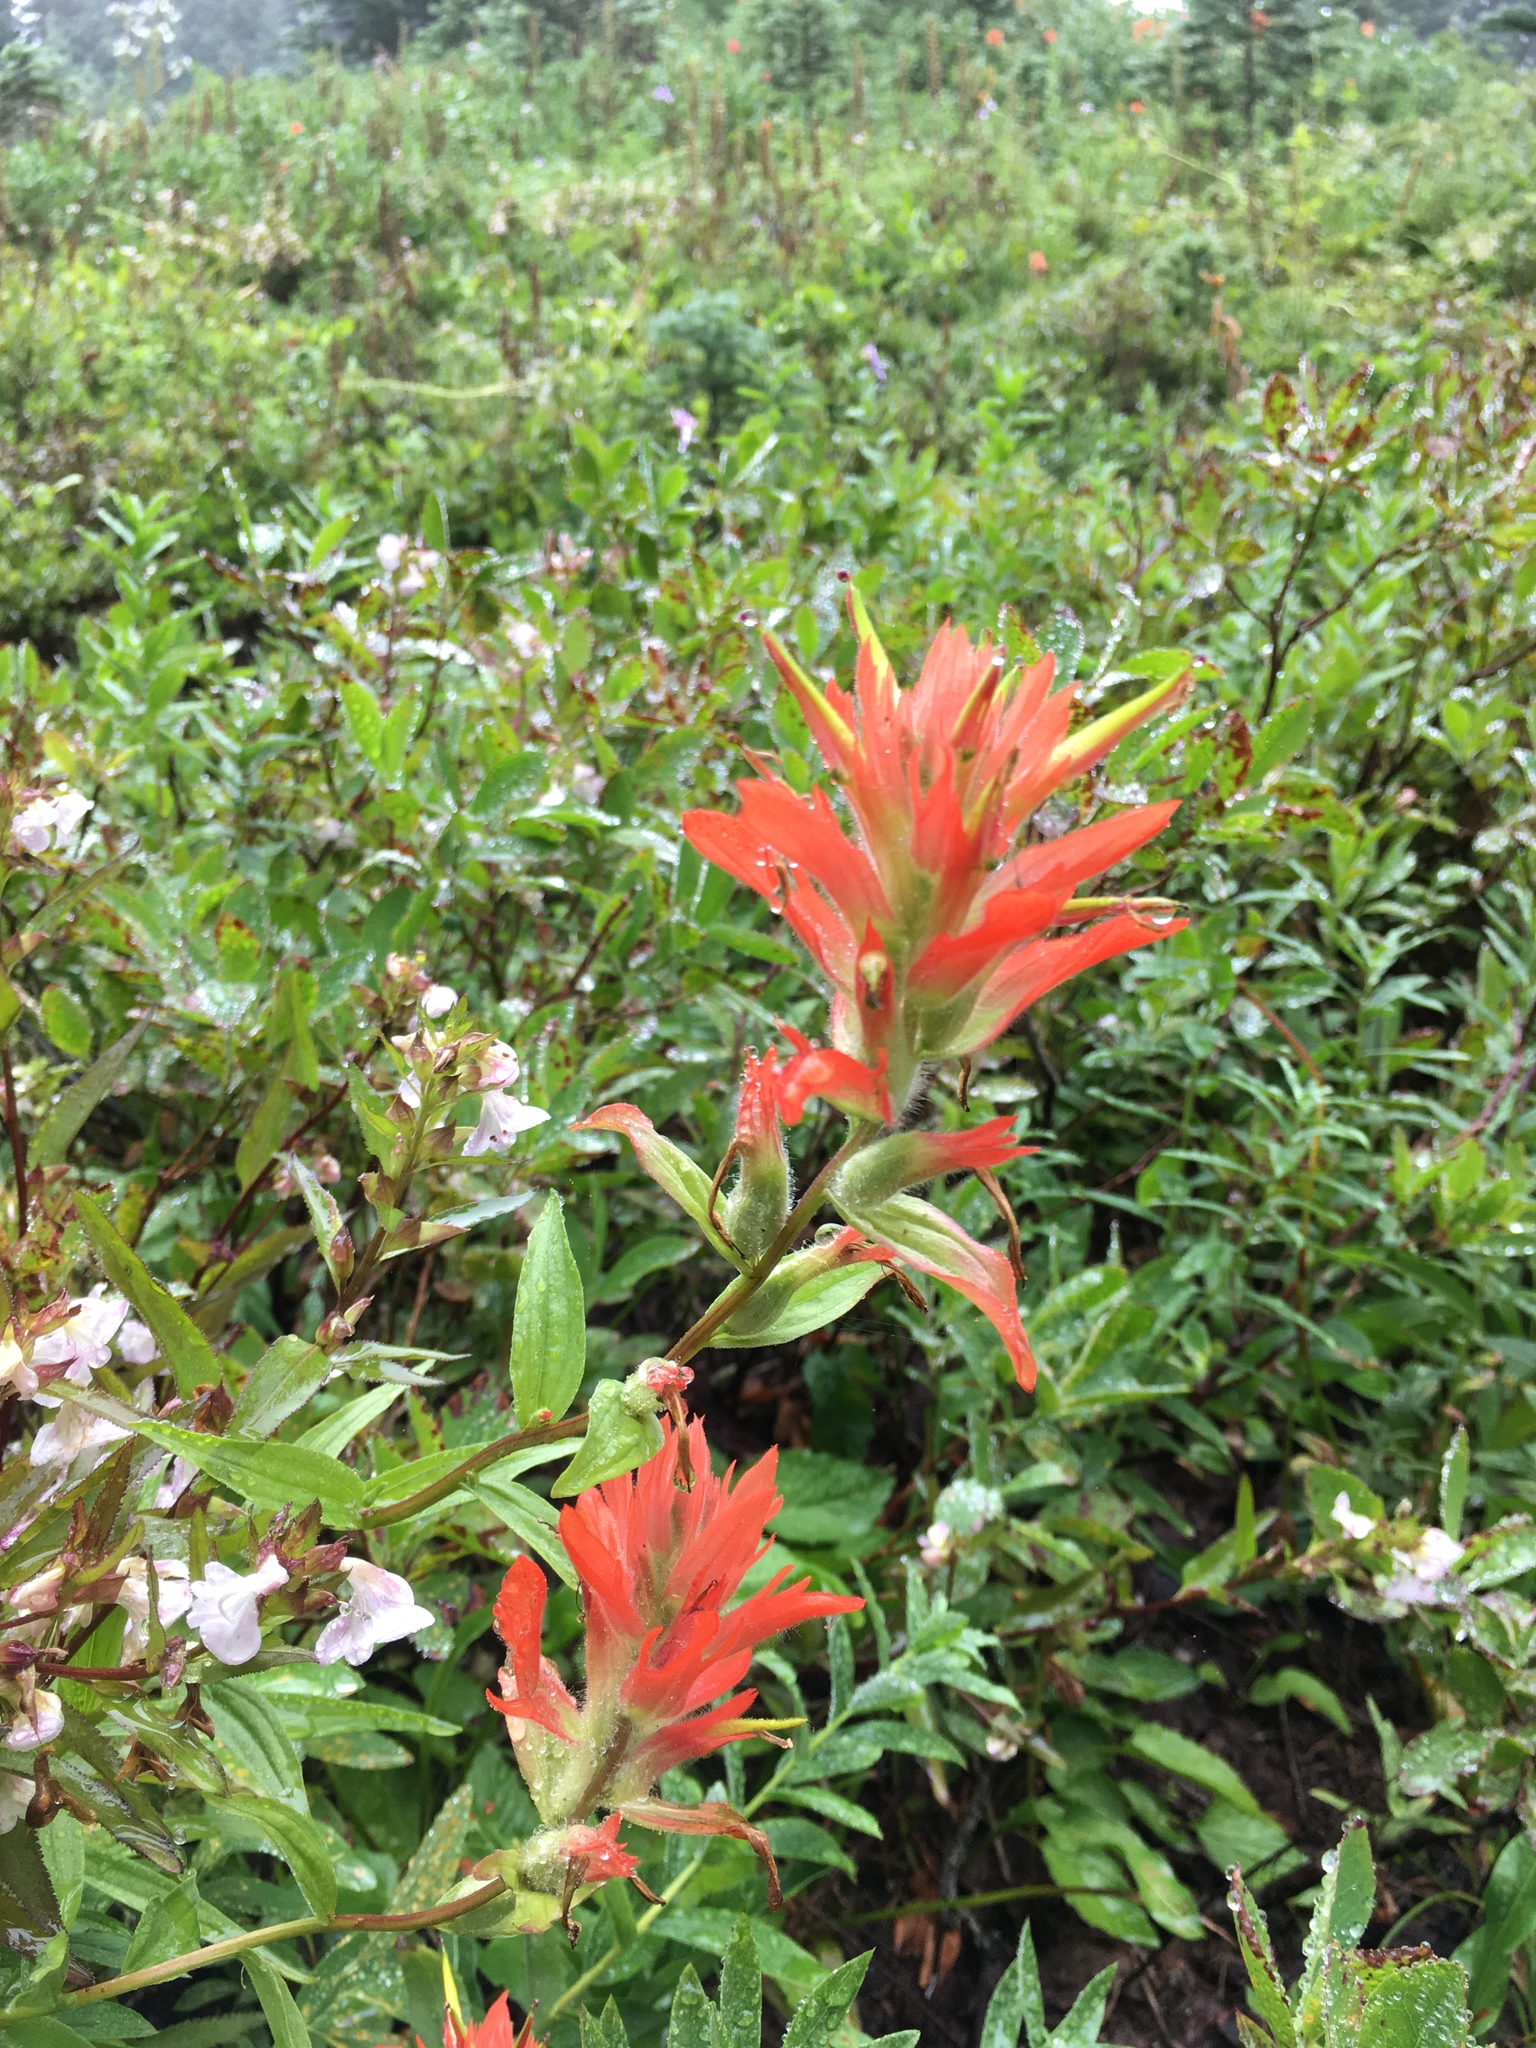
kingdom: Plantae
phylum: Tracheophyta
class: Magnoliopsida
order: Lamiales
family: Orobanchaceae
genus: Castilleja
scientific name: Castilleja miniata
